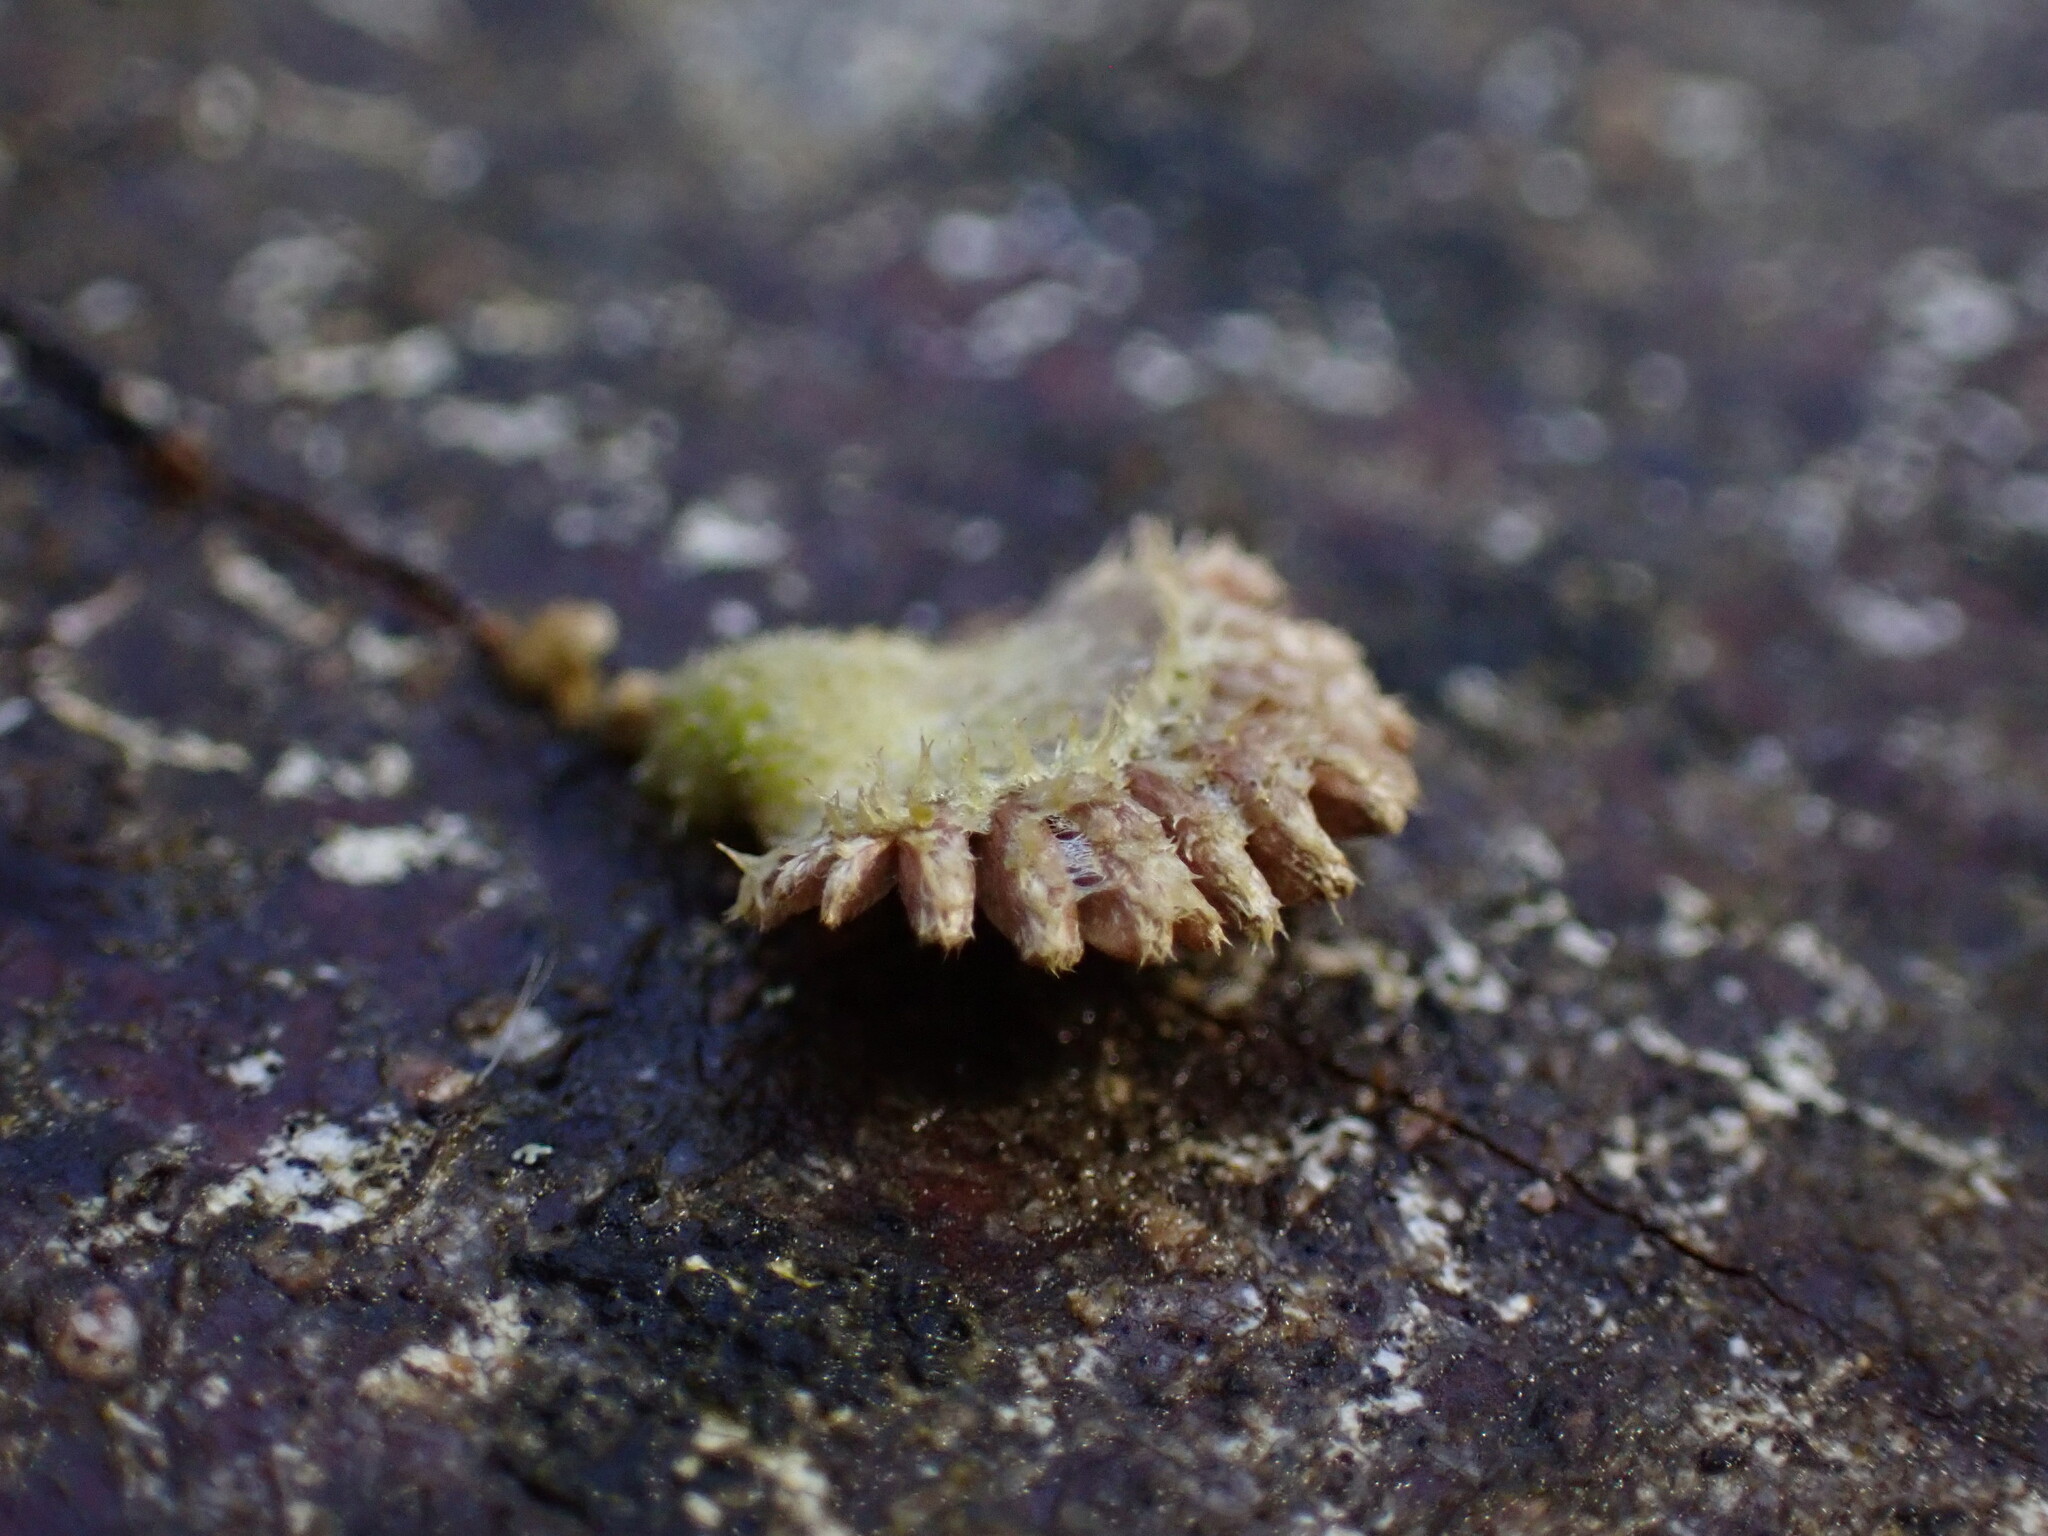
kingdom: Fungi
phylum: Basidiomycota
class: Agaricomycetes
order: Agaricales
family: Schizophyllaceae
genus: Schizophyllum
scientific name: Schizophyllum commune
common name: Common porecrust
